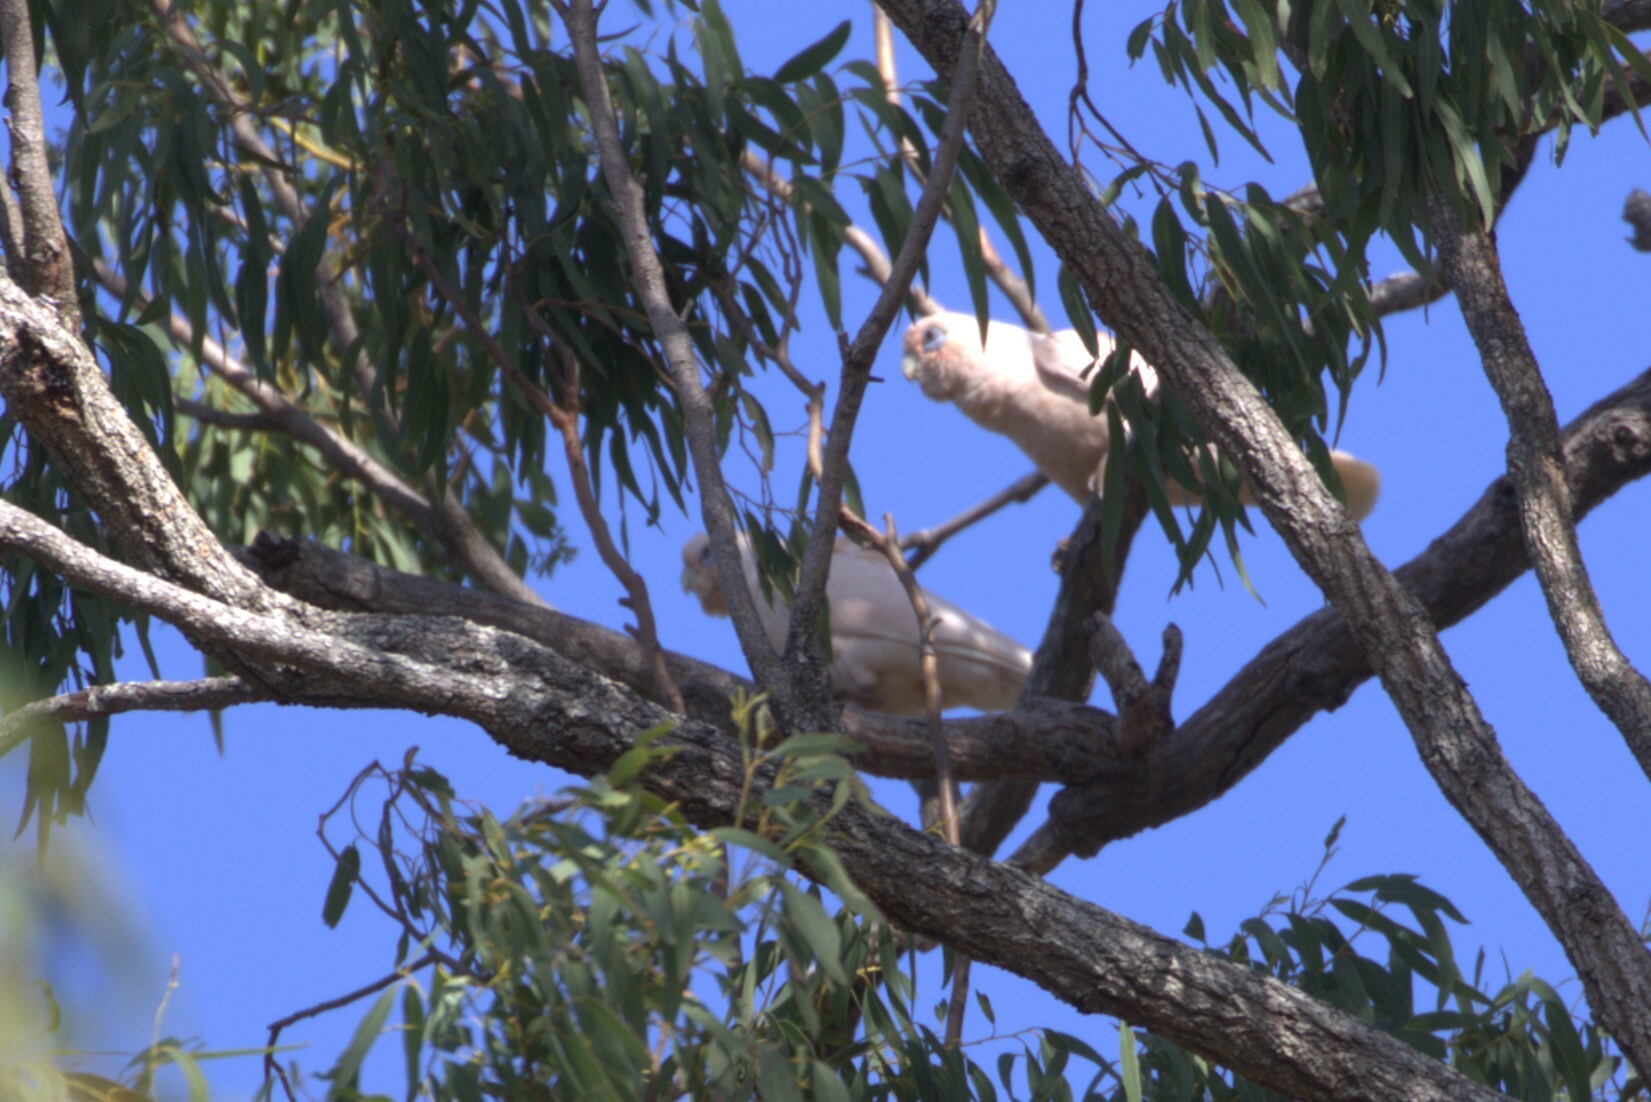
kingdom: Animalia
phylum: Chordata
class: Aves
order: Psittaciformes
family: Psittacidae
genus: Cacatua
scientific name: Cacatua sanguinea
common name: Little corella
